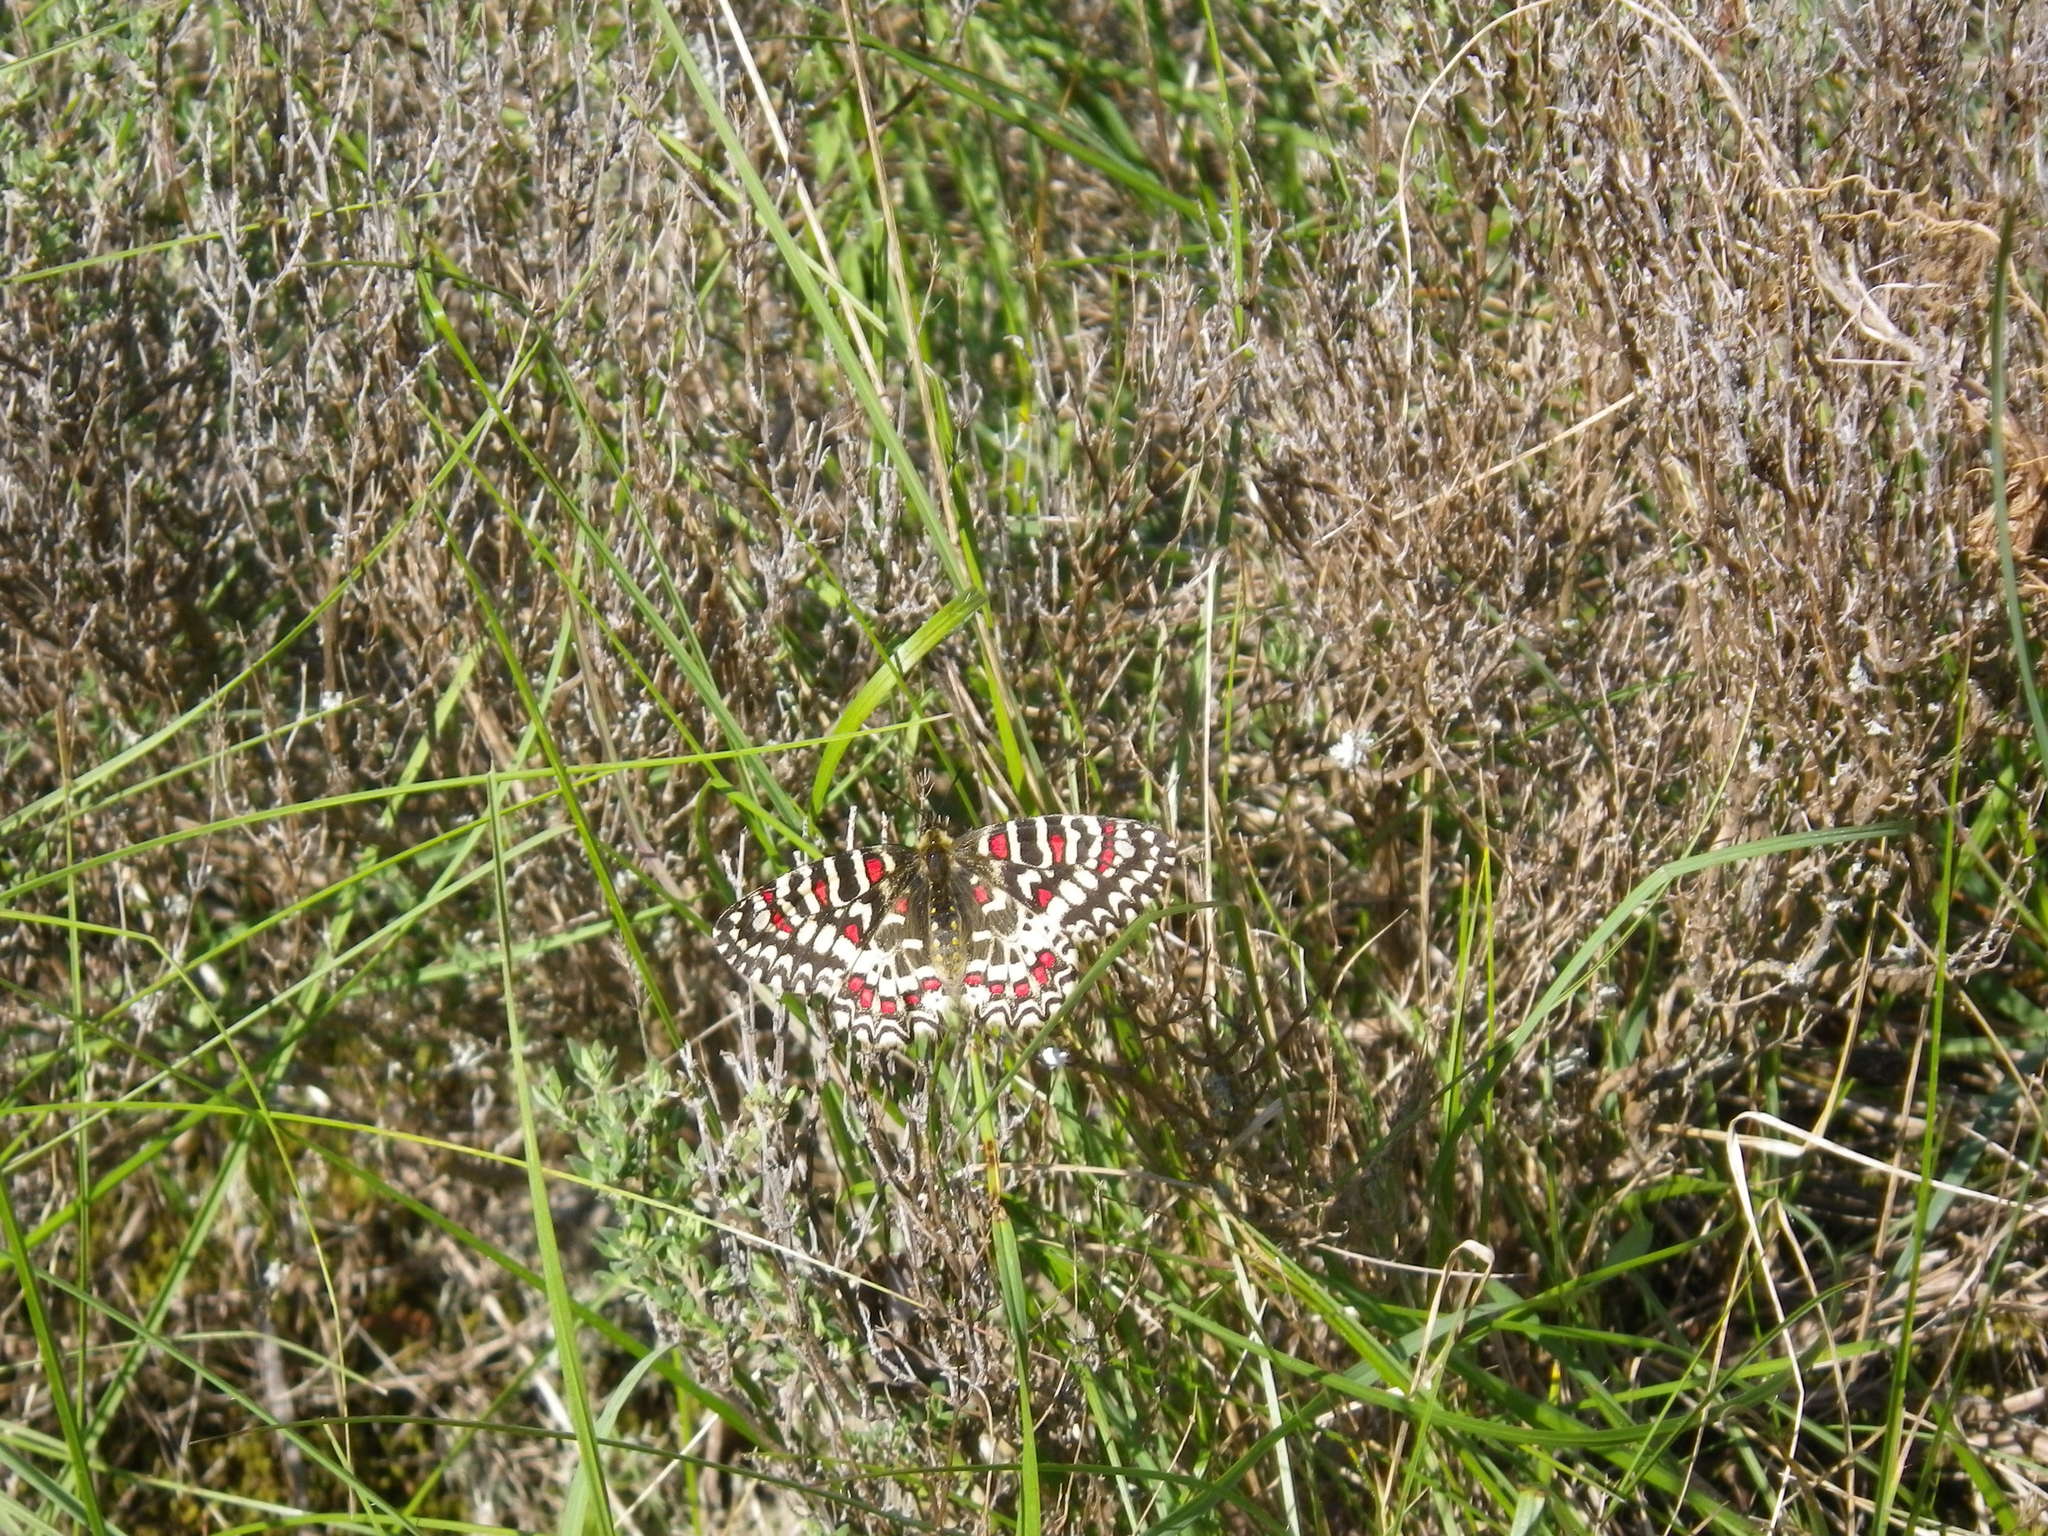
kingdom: Animalia
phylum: Arthropoda
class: Insecta
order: Lepidoptera
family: Papilionidae
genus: Zerynthia
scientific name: Zerynthia rumina
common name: Spanish festoon
